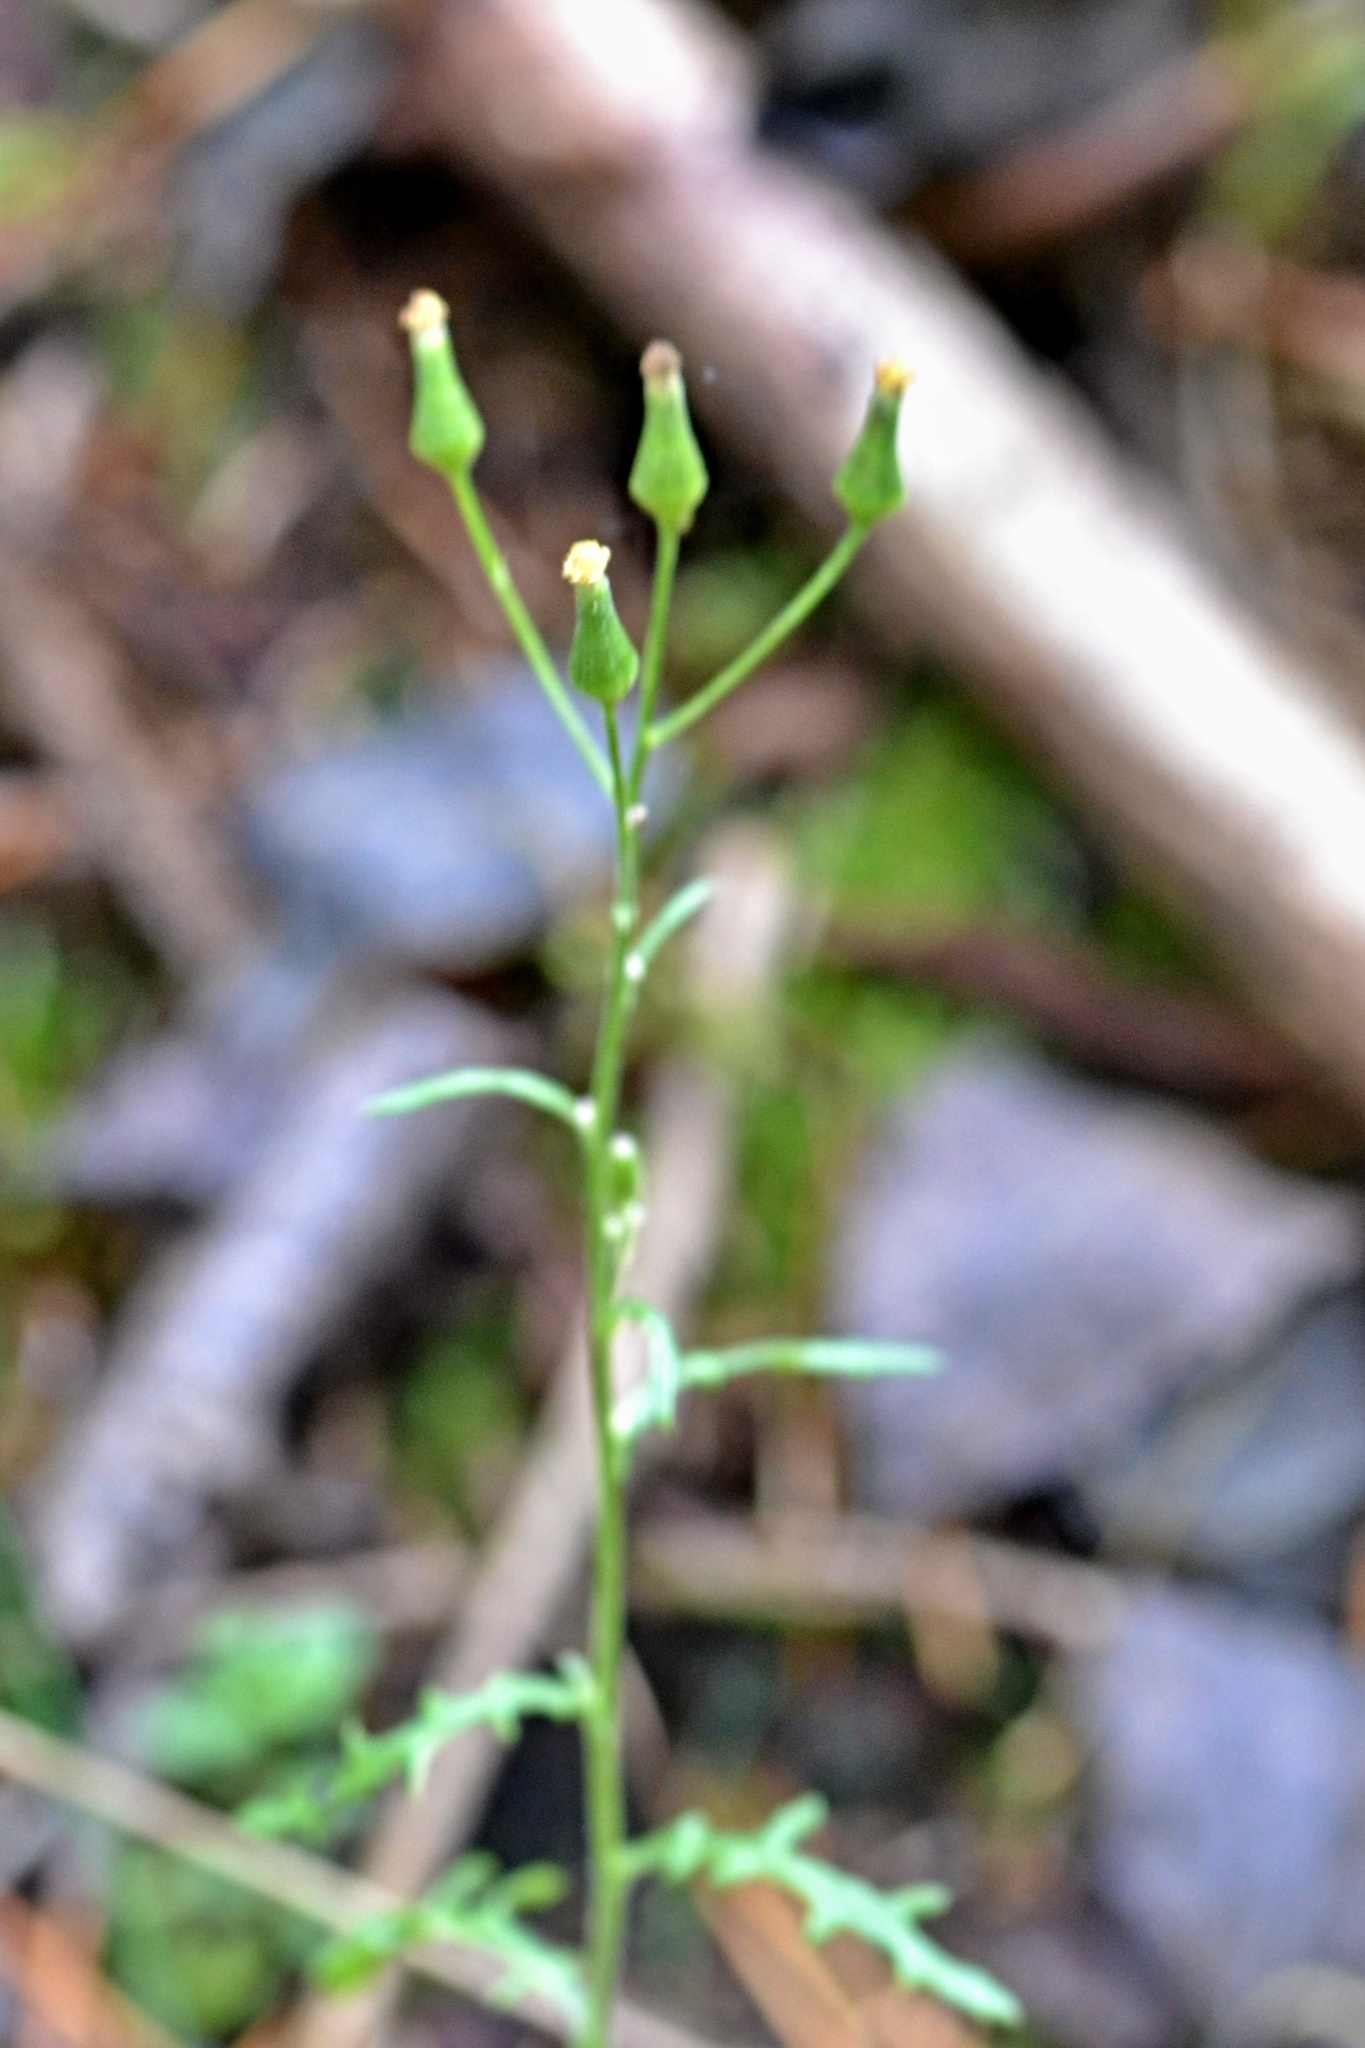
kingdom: Plantae
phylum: Tracheophyta
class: Magnoliopsida
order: Asterales
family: Asteraceae
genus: Senecio
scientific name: Senecio sylvaticus
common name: Woodland ragwort
